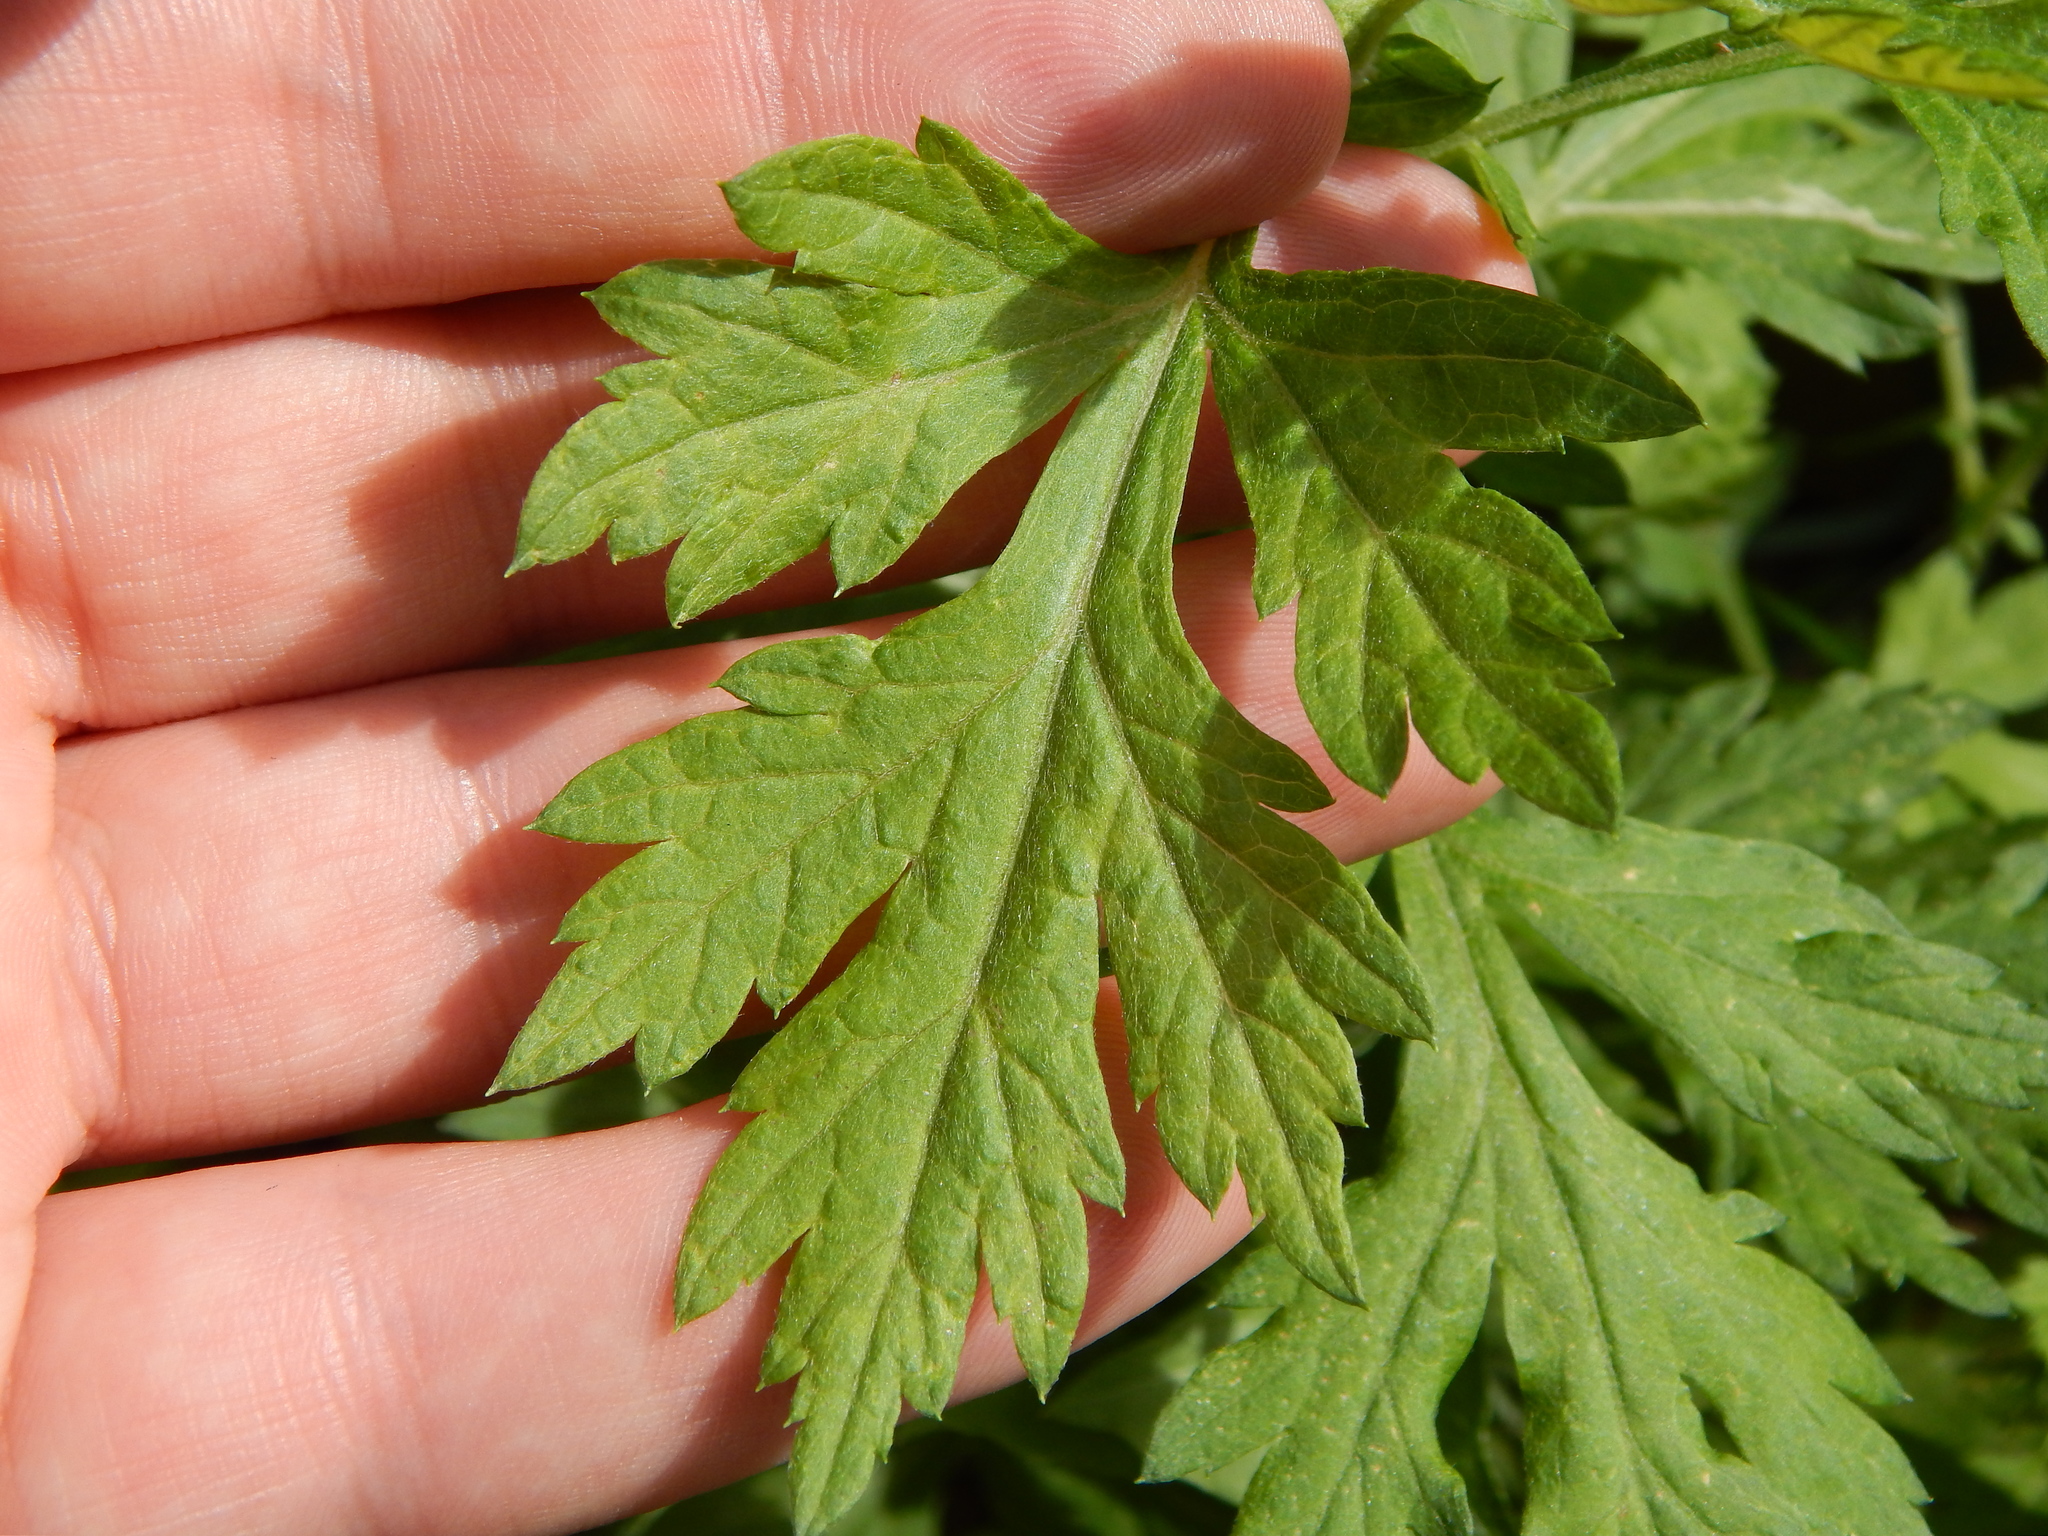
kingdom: Plantae
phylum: Tracheophyta
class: Magnoliopsida
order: Asterales
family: Asteraceae
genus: Artemisia
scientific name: Artemisia vulgaris
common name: Mugwort
